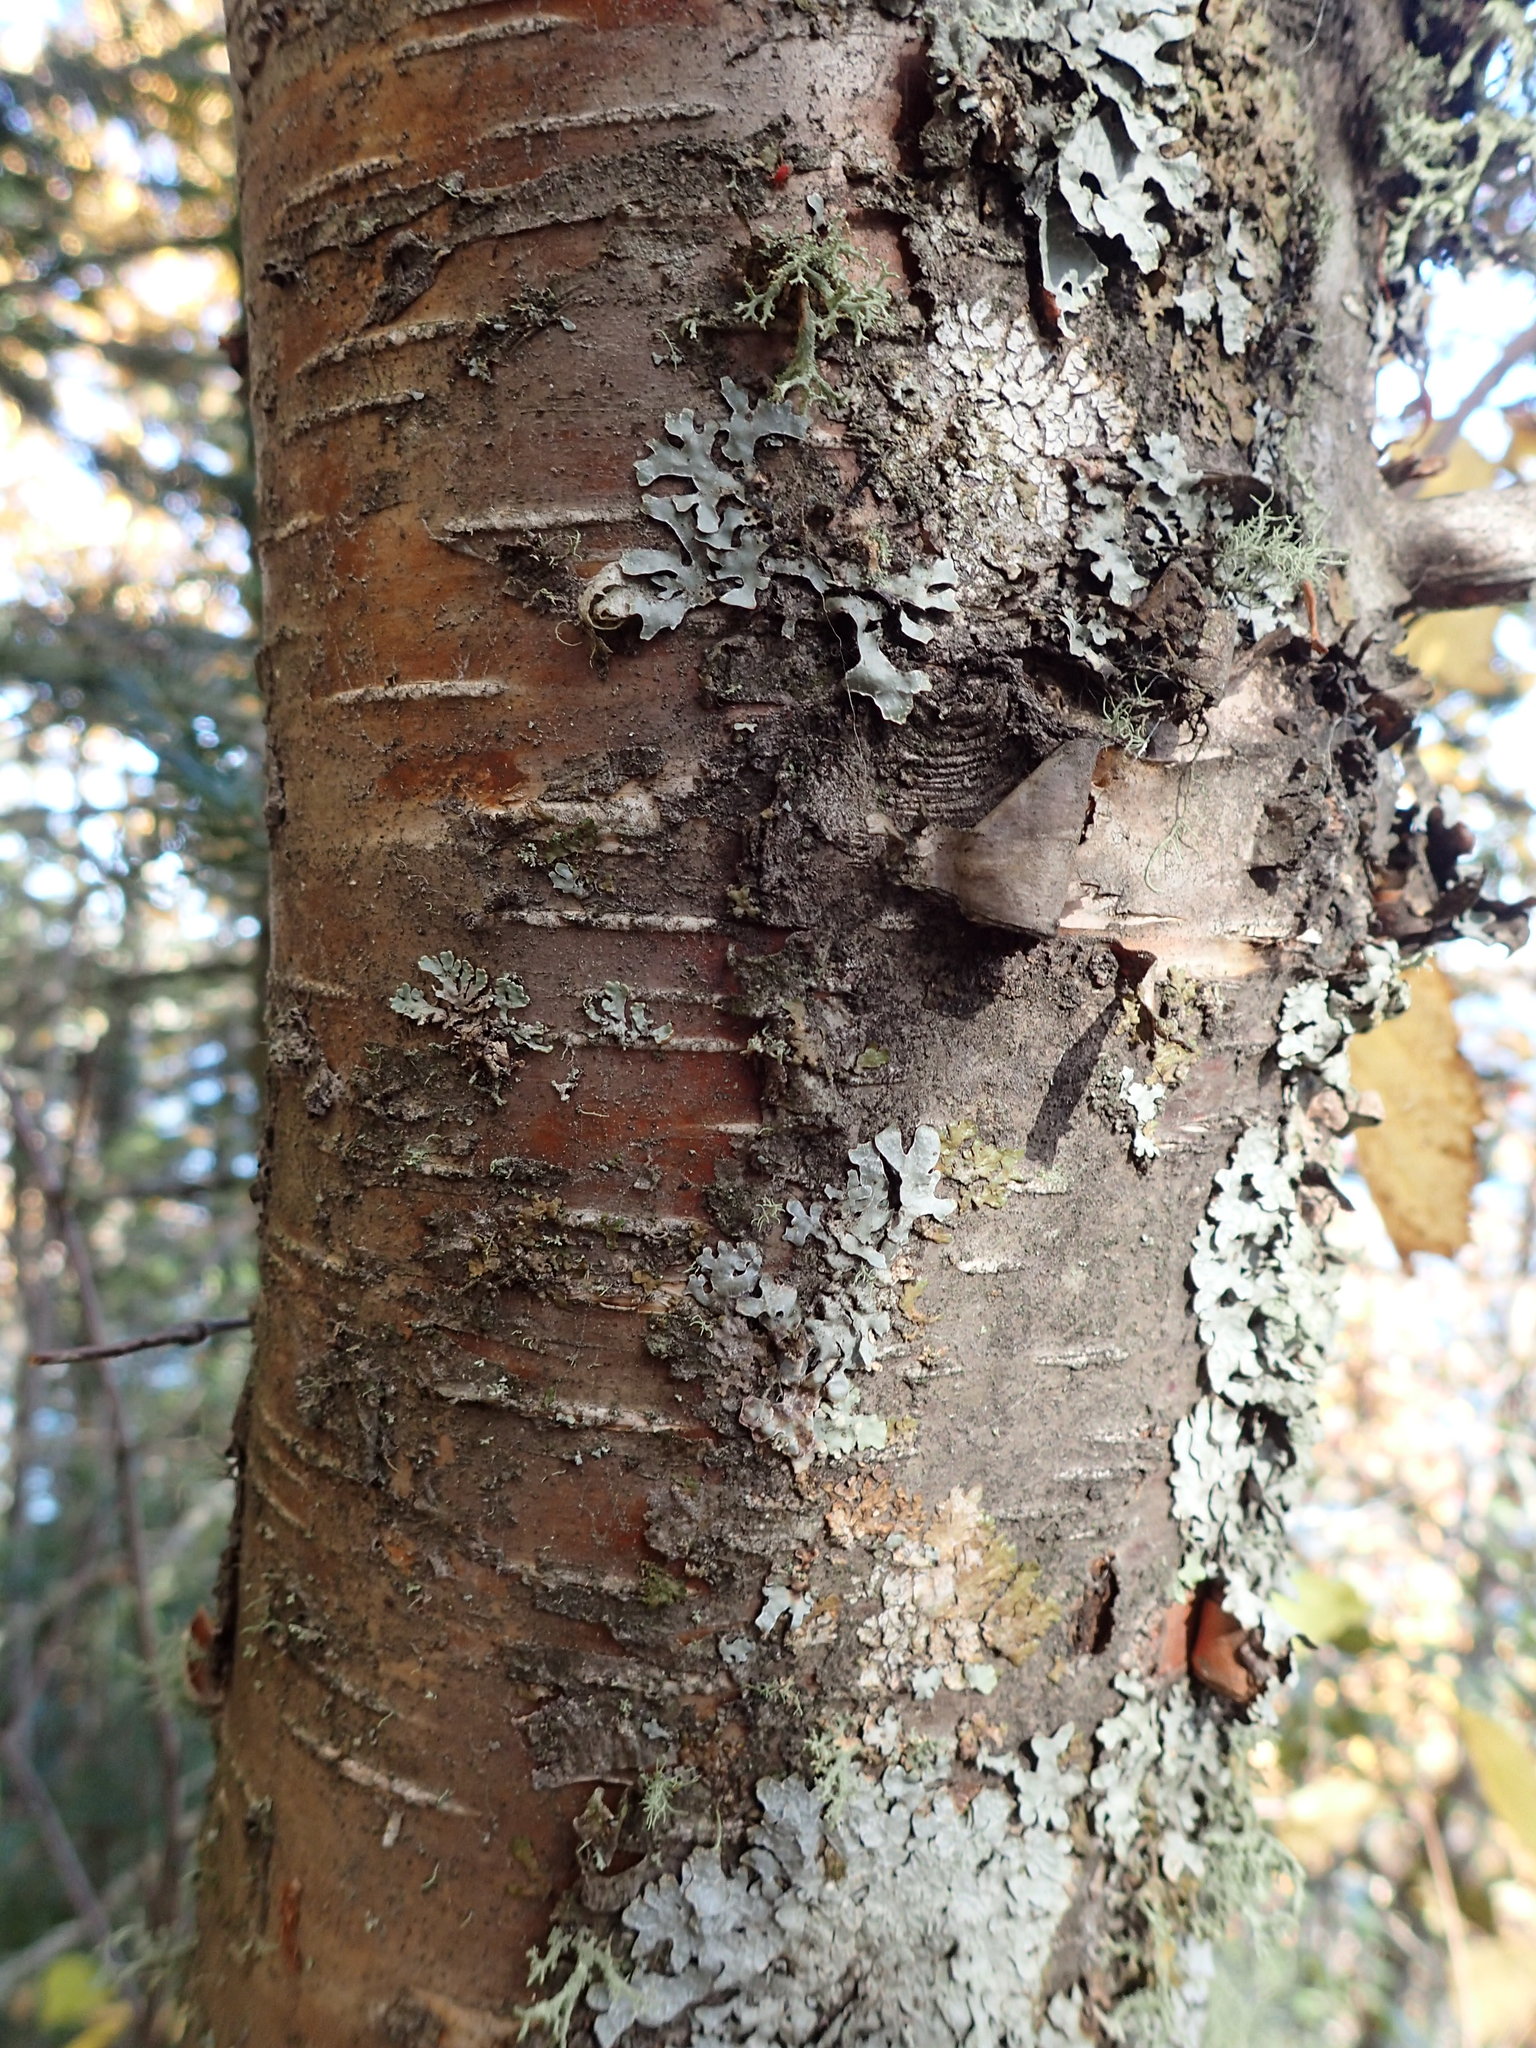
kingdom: Plantae
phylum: Tracheophyta
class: Magnoliopsida
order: Fagales
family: Betulaceae
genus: Betula
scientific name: Betula cordifolia
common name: Mountain white birch
